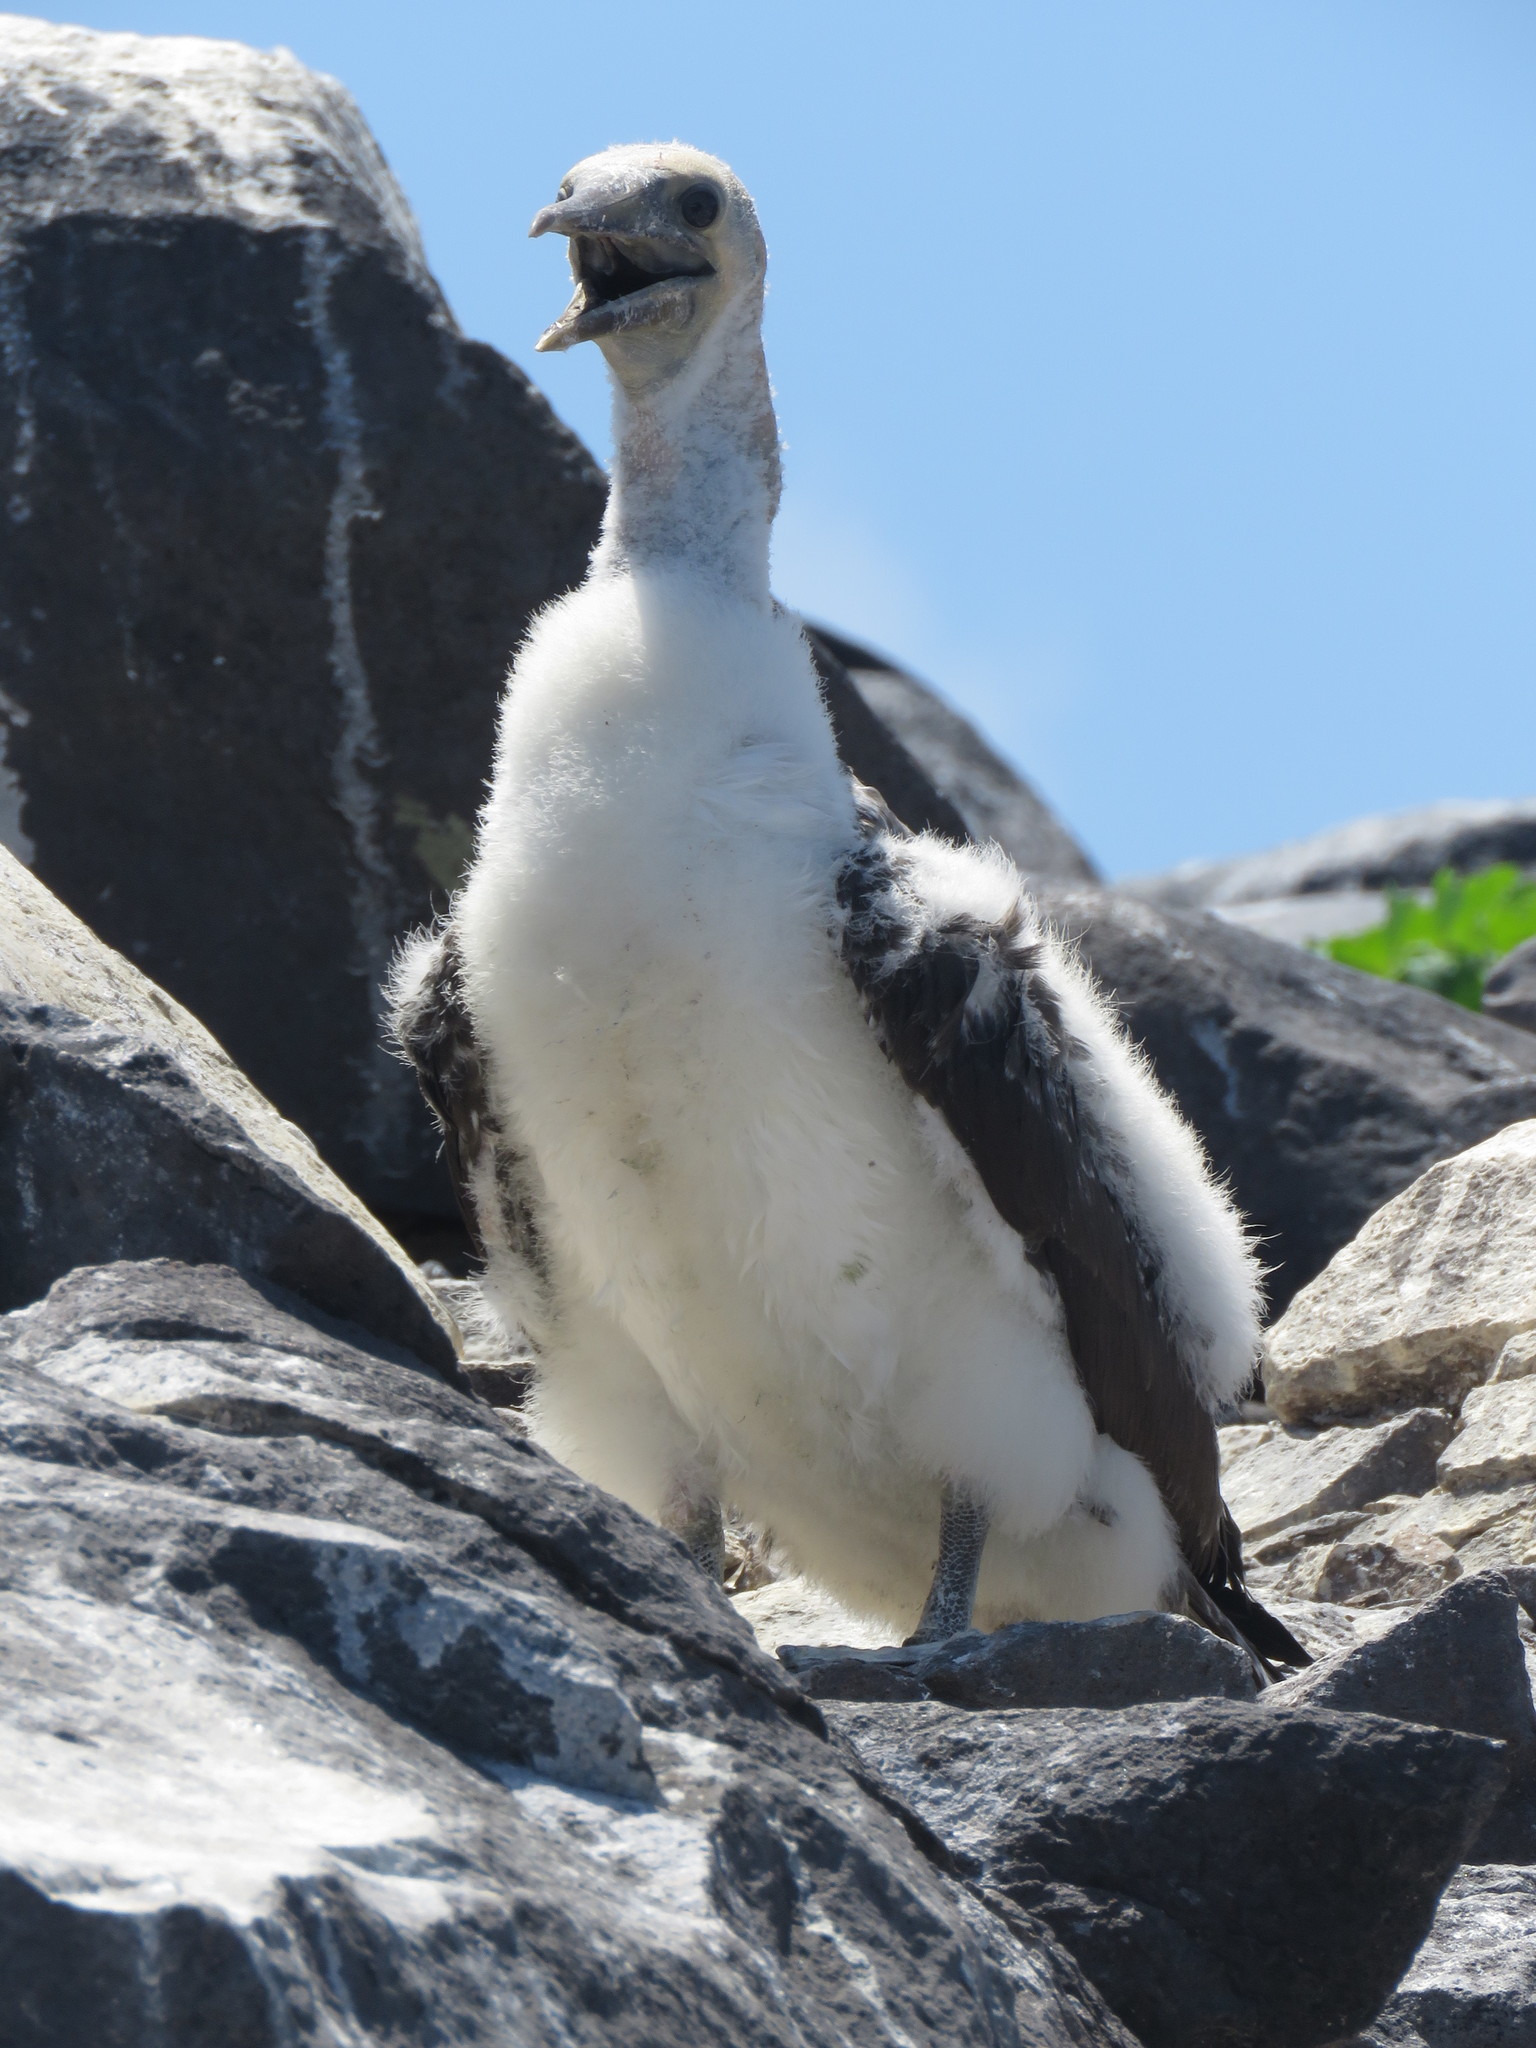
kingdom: Animalia
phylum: Chordata
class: Aves
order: Suliformes
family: Sulidae
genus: Sula
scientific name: Sula granti
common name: Nazca booby
